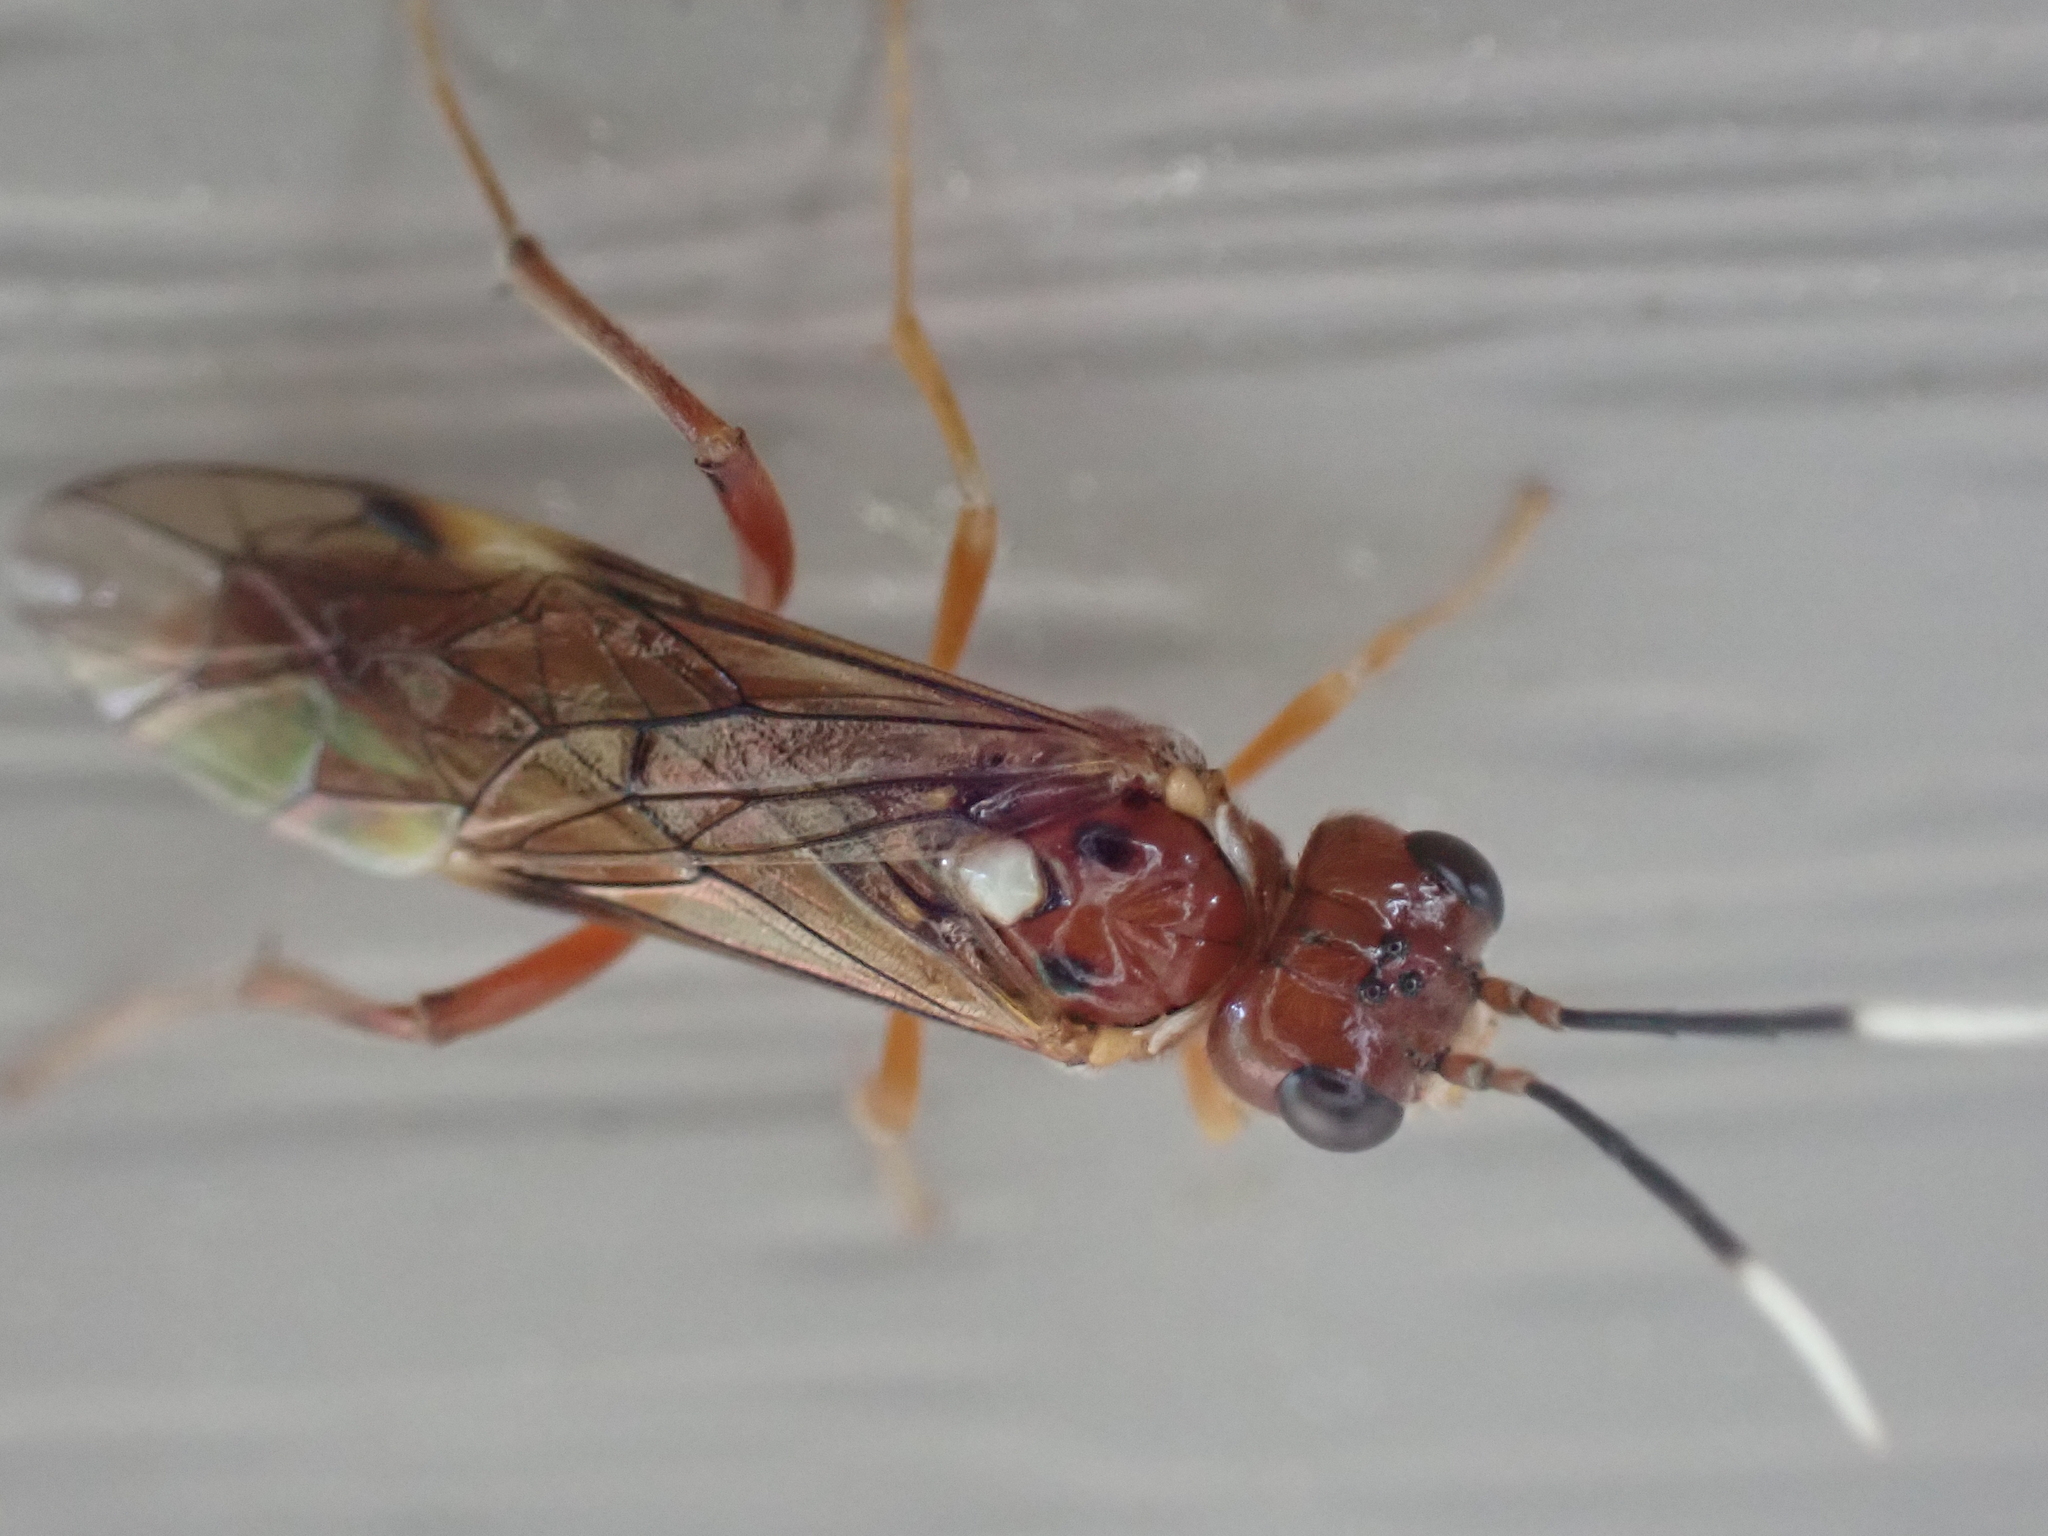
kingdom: Animalia
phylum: Arthropoda
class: Insecta
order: Hymenoptera
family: Tenthredinidae
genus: Macremphytus
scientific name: Macremphytus testaceus
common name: Dogwood sawfly
